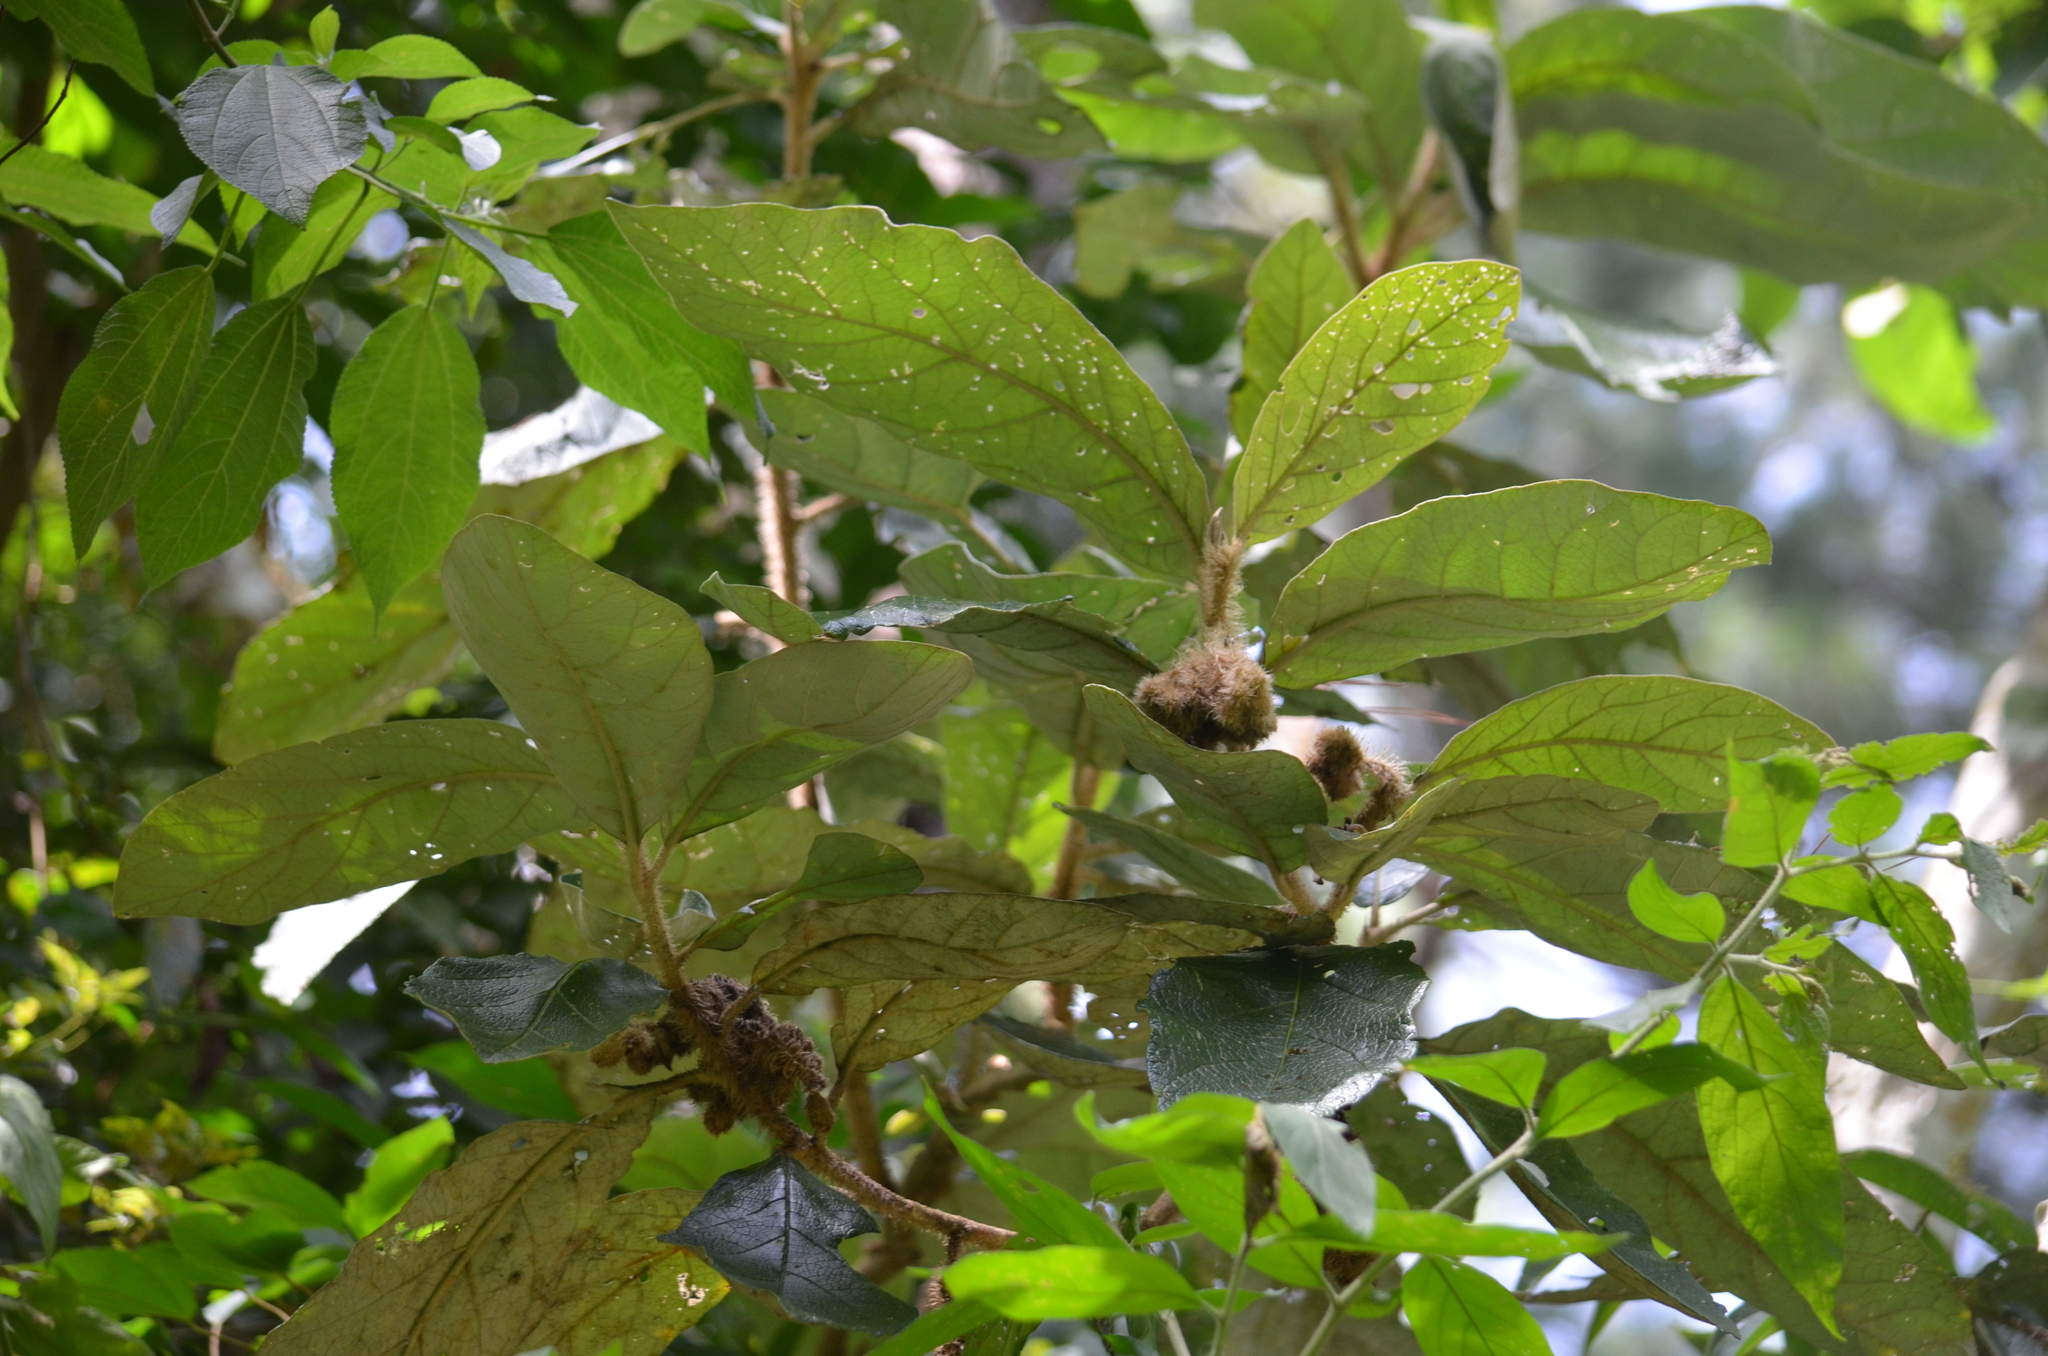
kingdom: Plantae
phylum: Tracheophyta
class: Magnoliopsida
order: Solanales
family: Solanaceae
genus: Solanum
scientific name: Solanum cernuum
